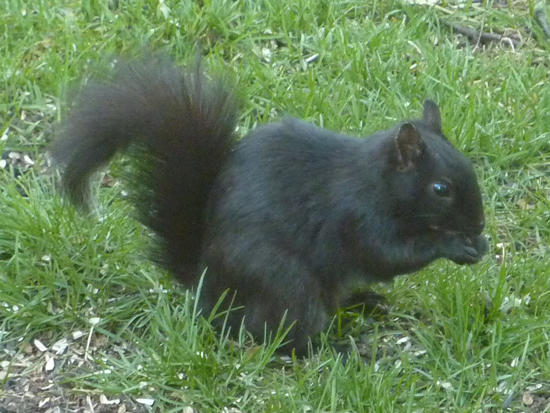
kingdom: Animalia
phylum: Chordata
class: Mammalia
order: Rodentia
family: Sciuridae
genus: Sciurus
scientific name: Sciurus carolinensis
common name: Eastern gray squirrel
